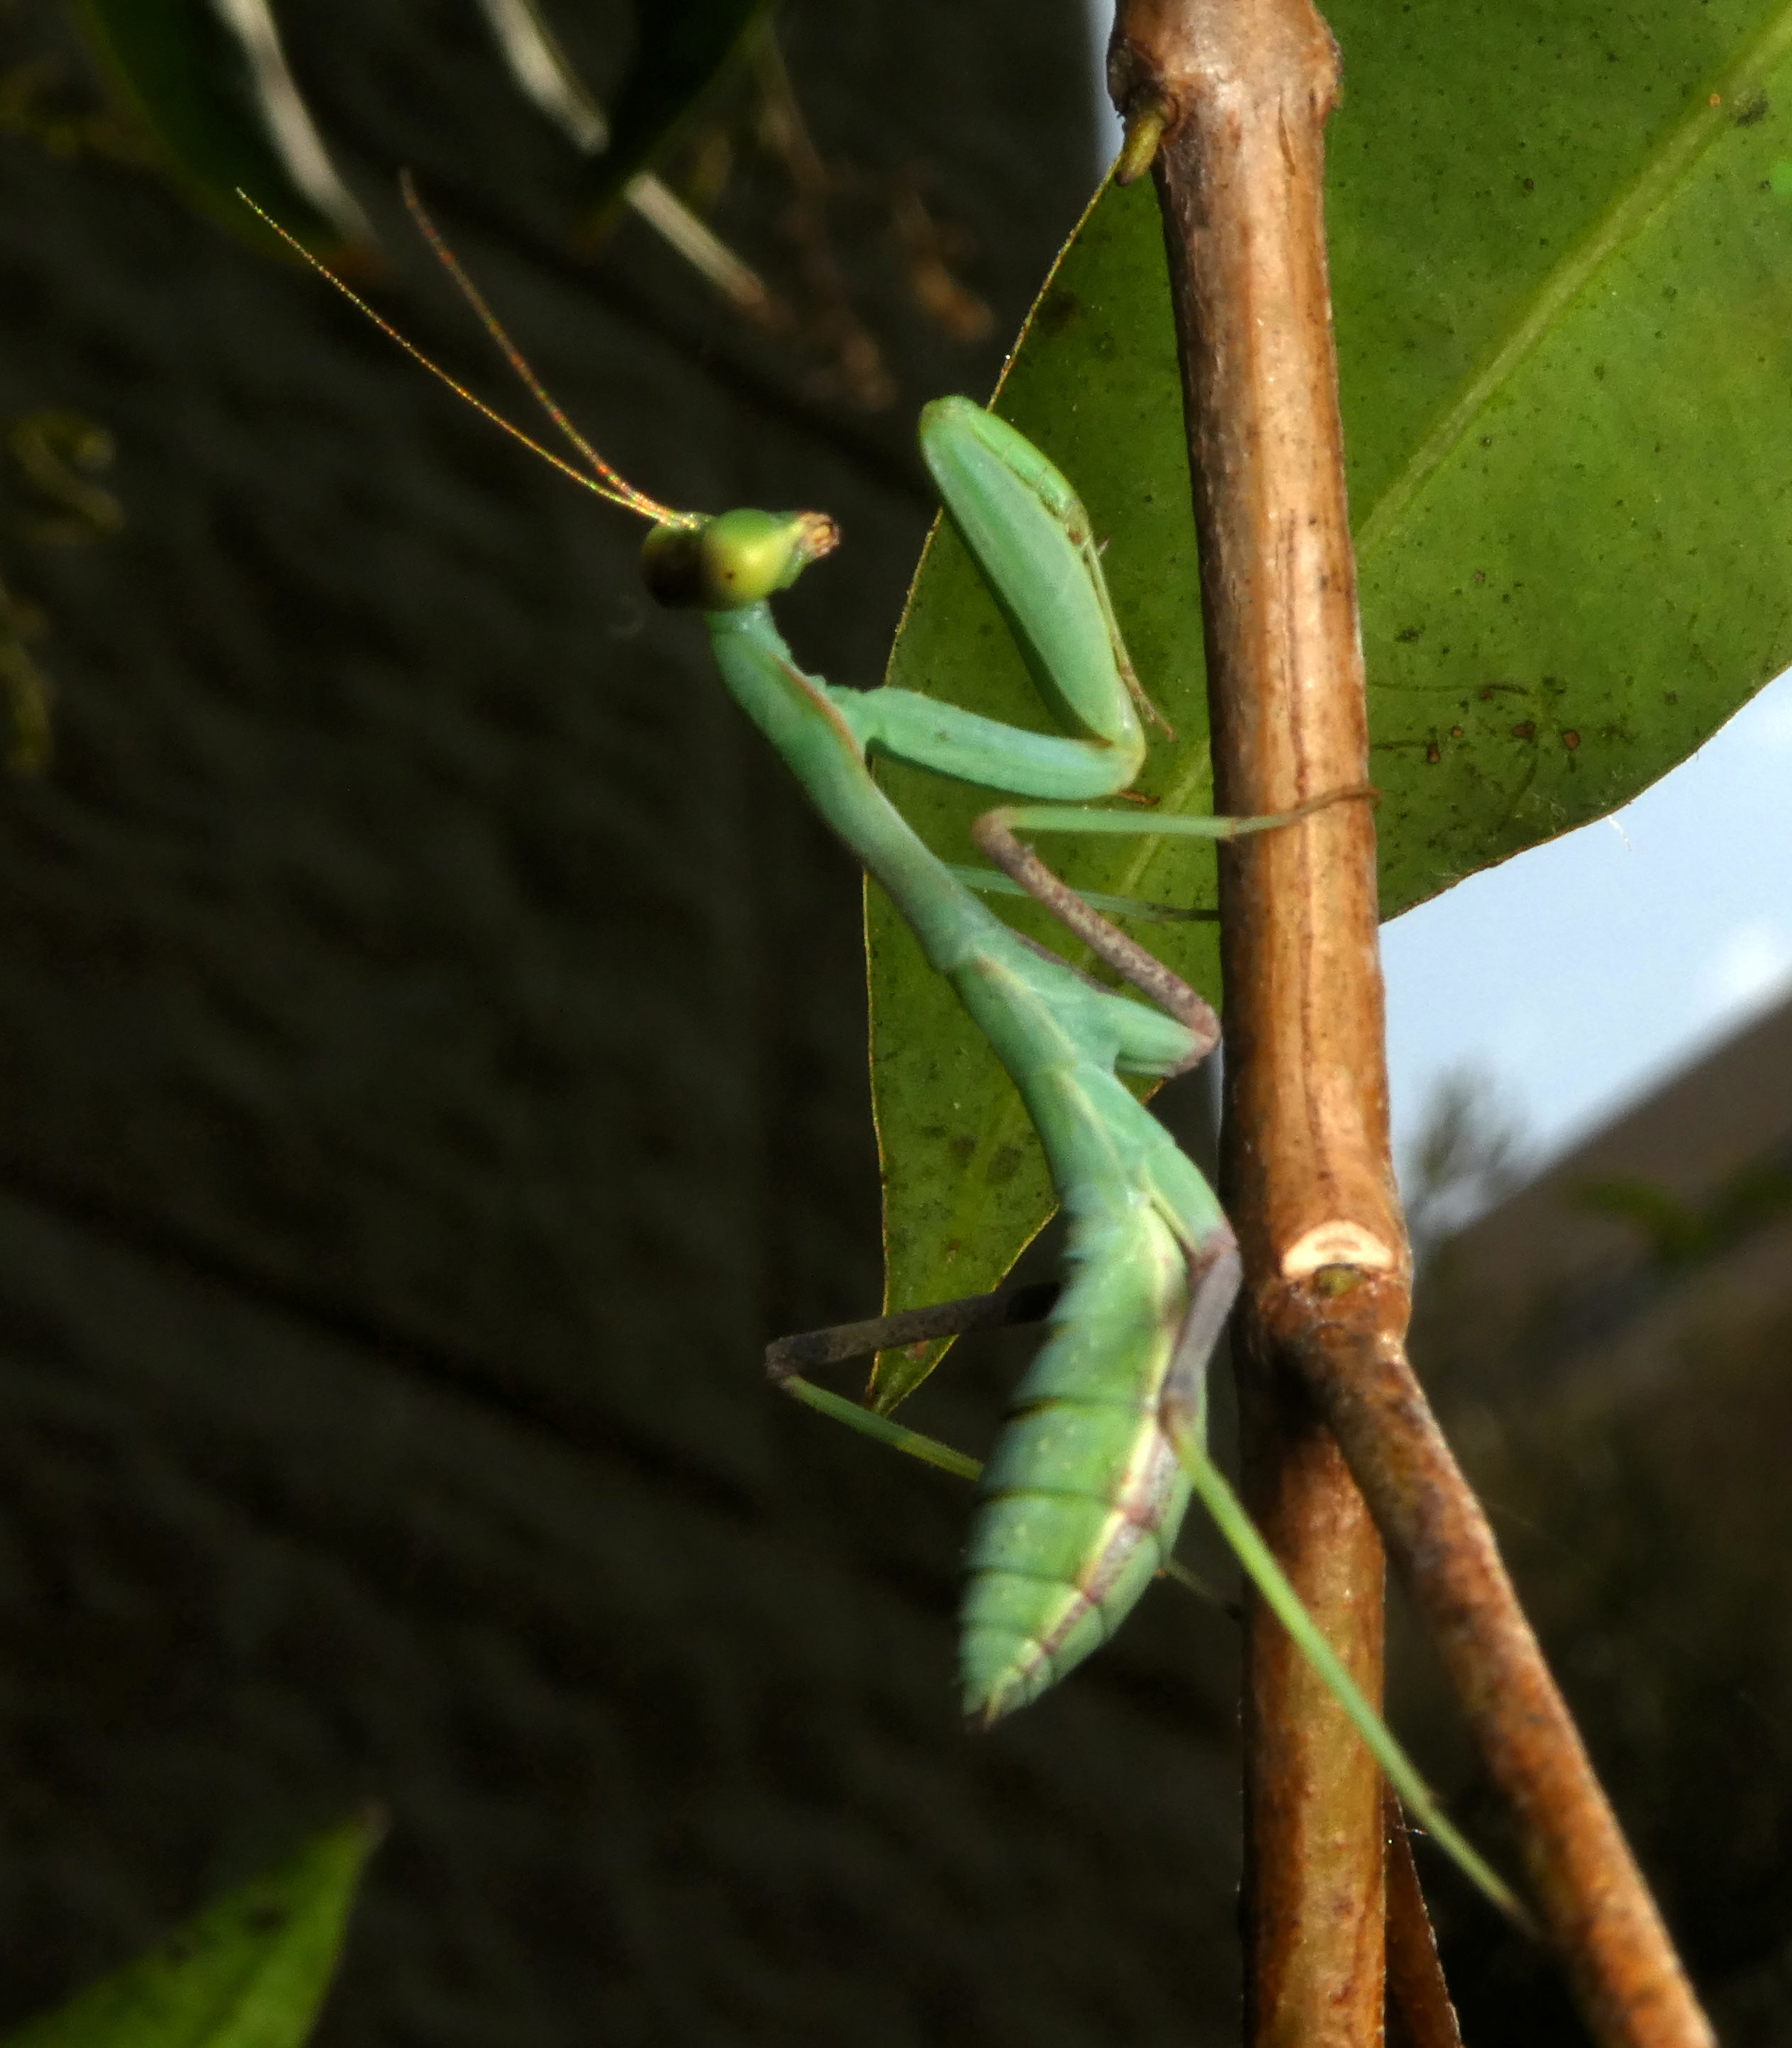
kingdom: Animalia
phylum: Arthropoda
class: Insecta
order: Mantodea
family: Mantidae
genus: Sphodromantis
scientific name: Sphodromantis viridis
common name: Giant african mantis
